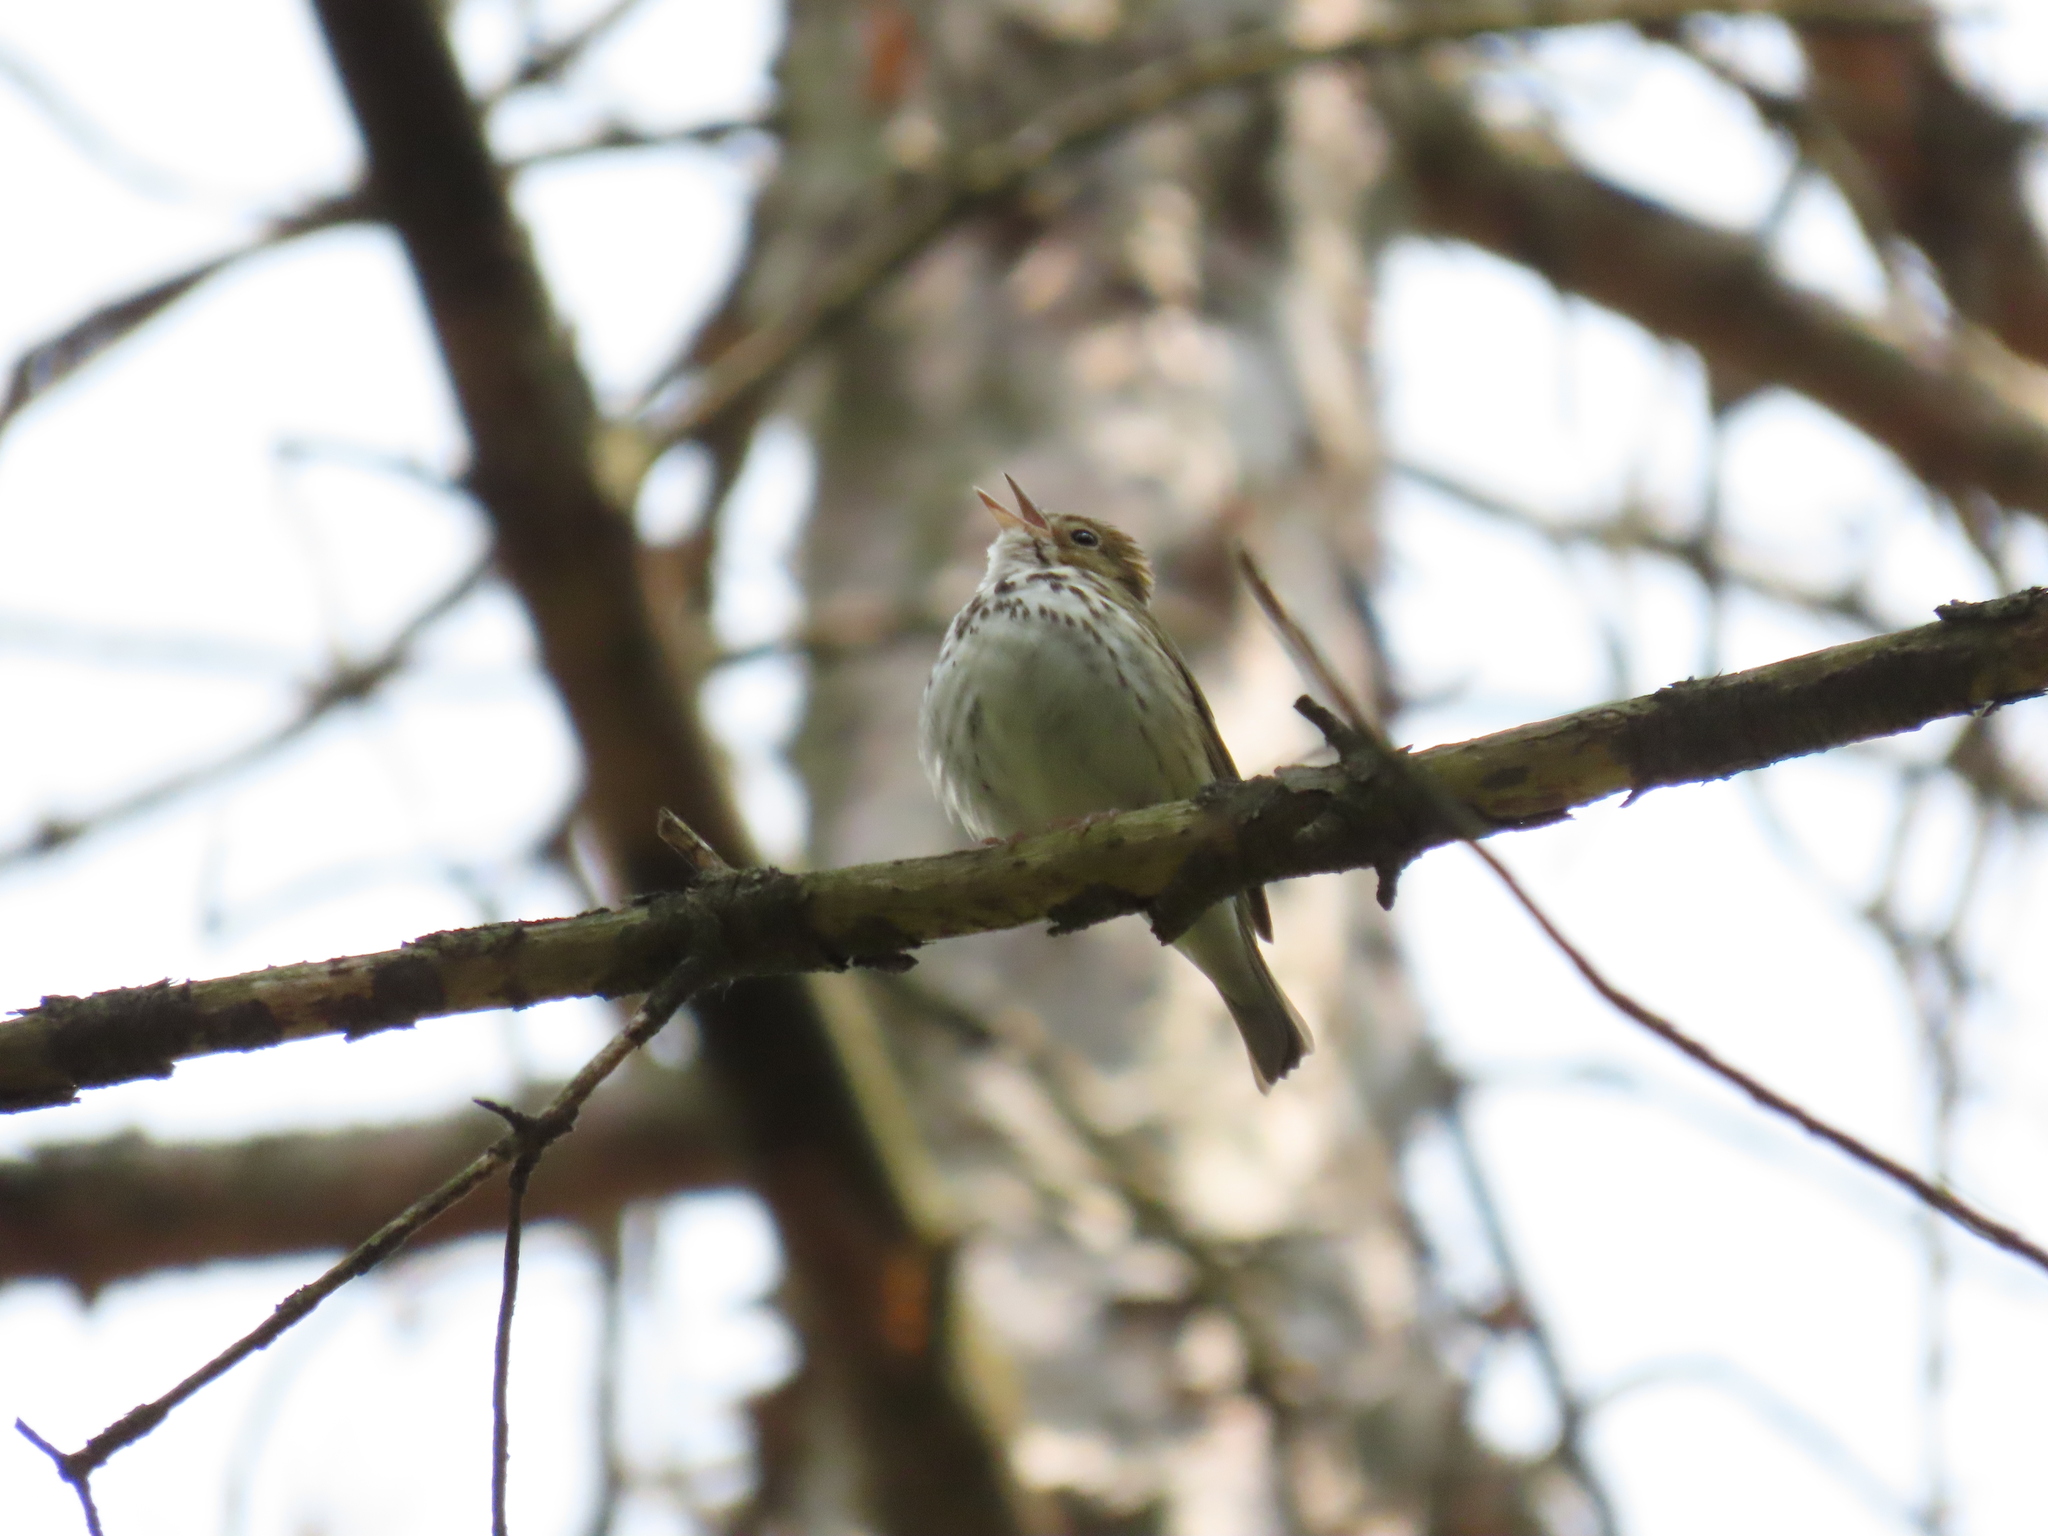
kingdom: Animalia
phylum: Chordata
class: Aves
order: Passeriformes
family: Parulidae
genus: Seiurus
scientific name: Seiurus aurocapilla
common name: Ovenbird
